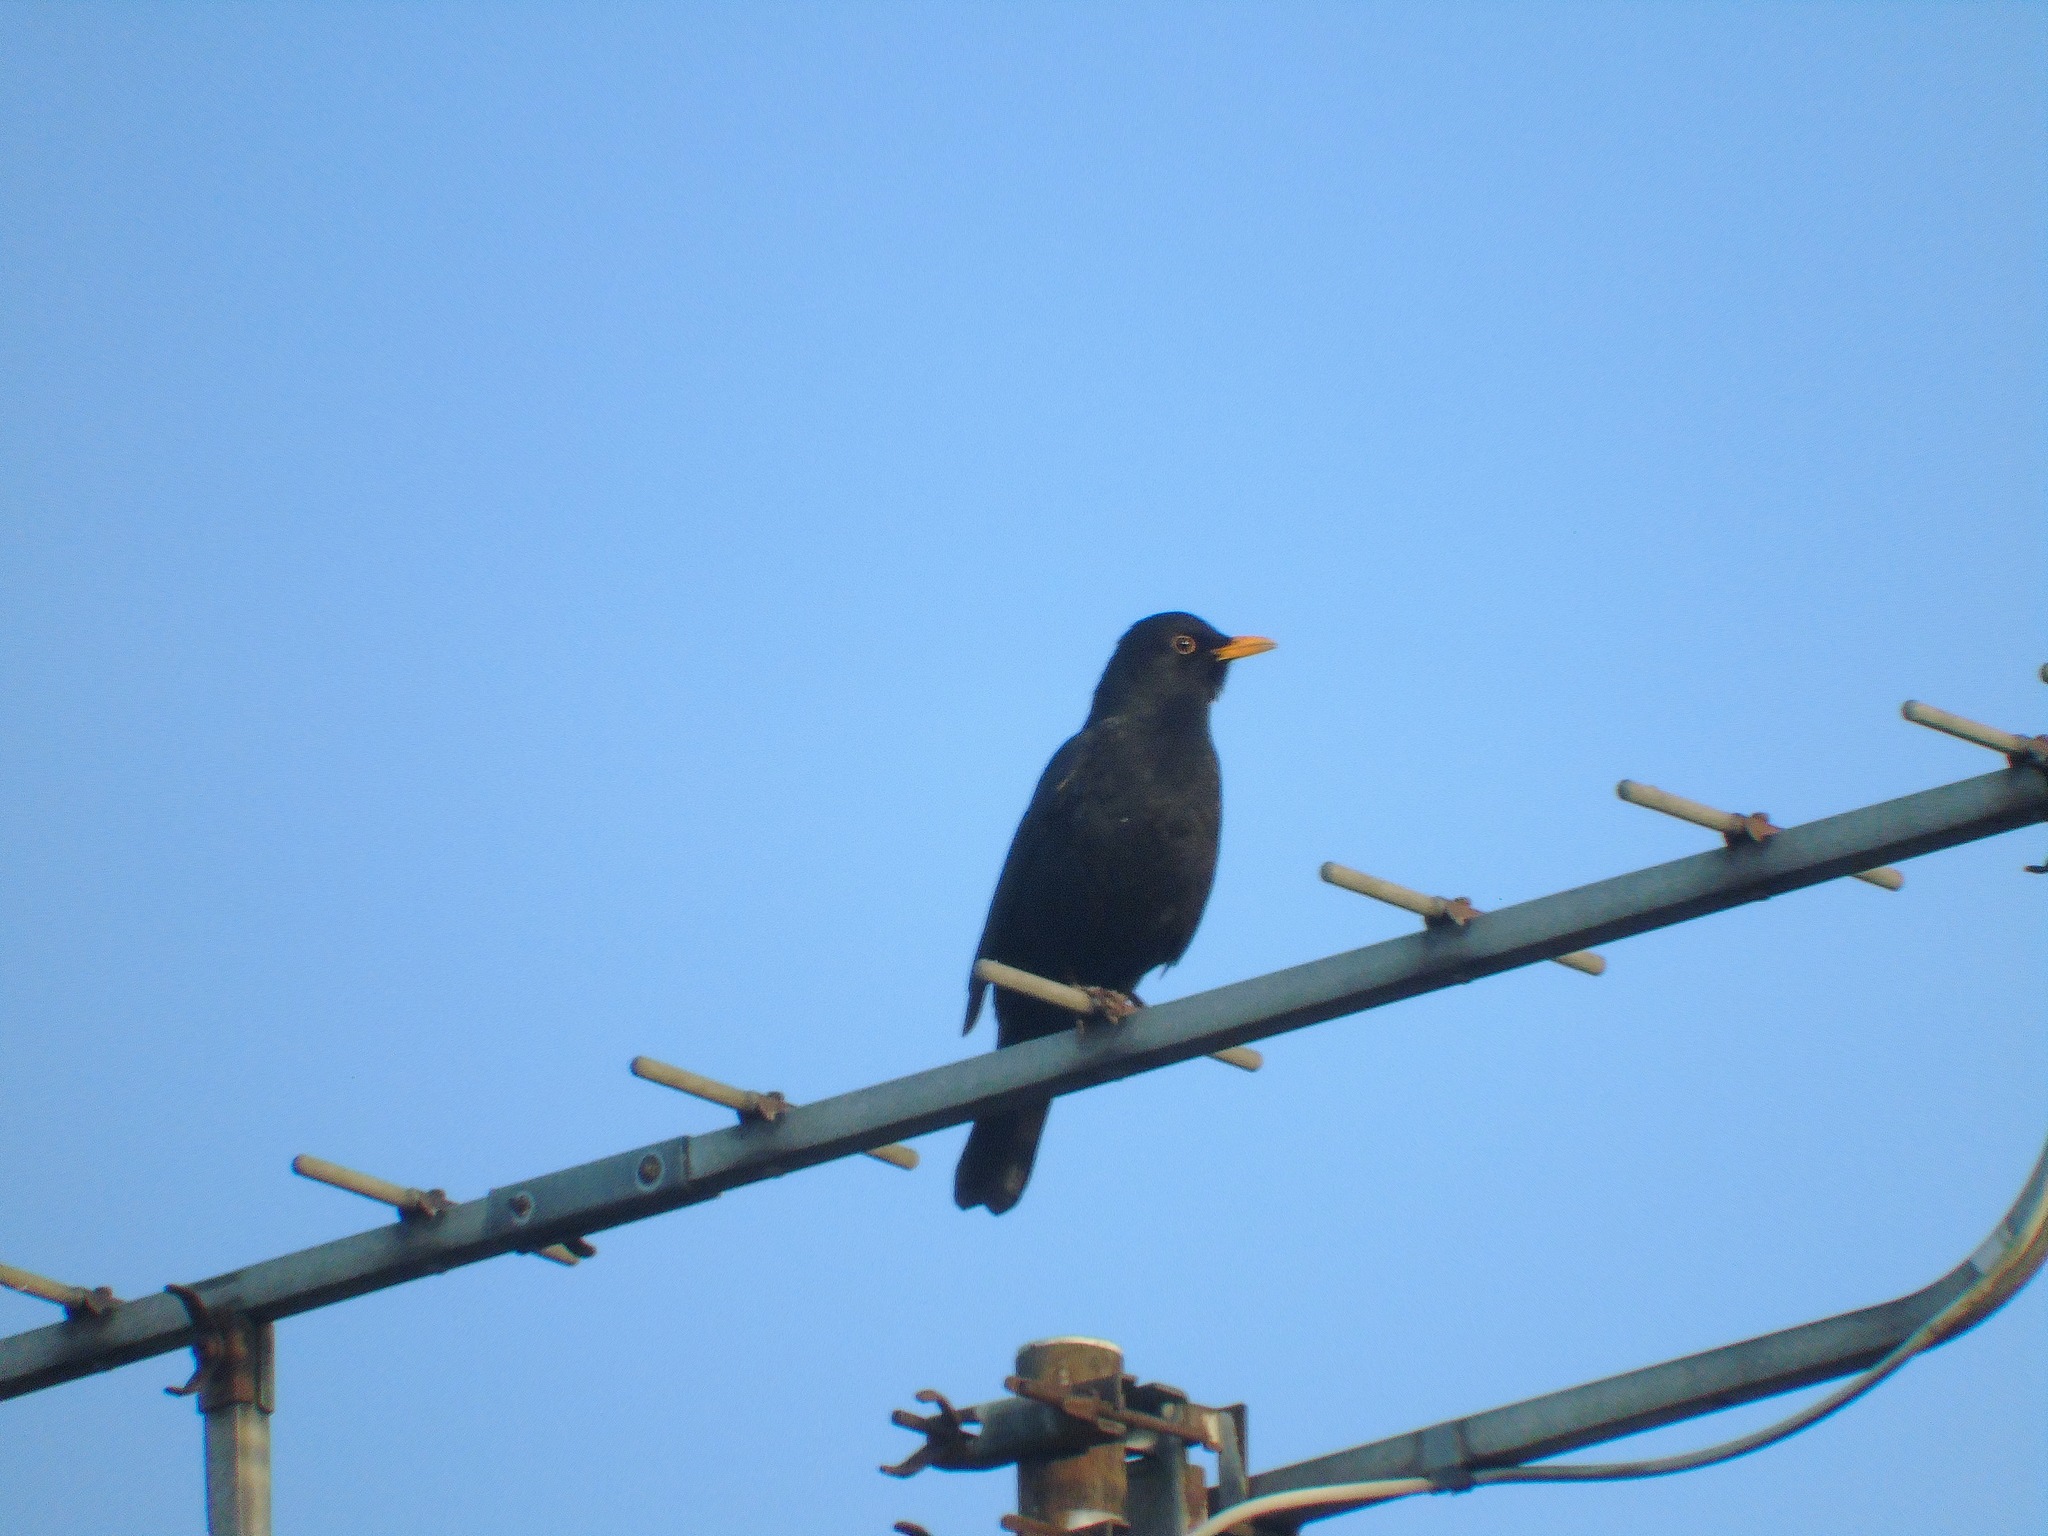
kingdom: Animalia
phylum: Chordata
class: Aves
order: Passeriformes
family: Turdidae
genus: Turdus
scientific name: Turdus merula
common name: Common blackbird
